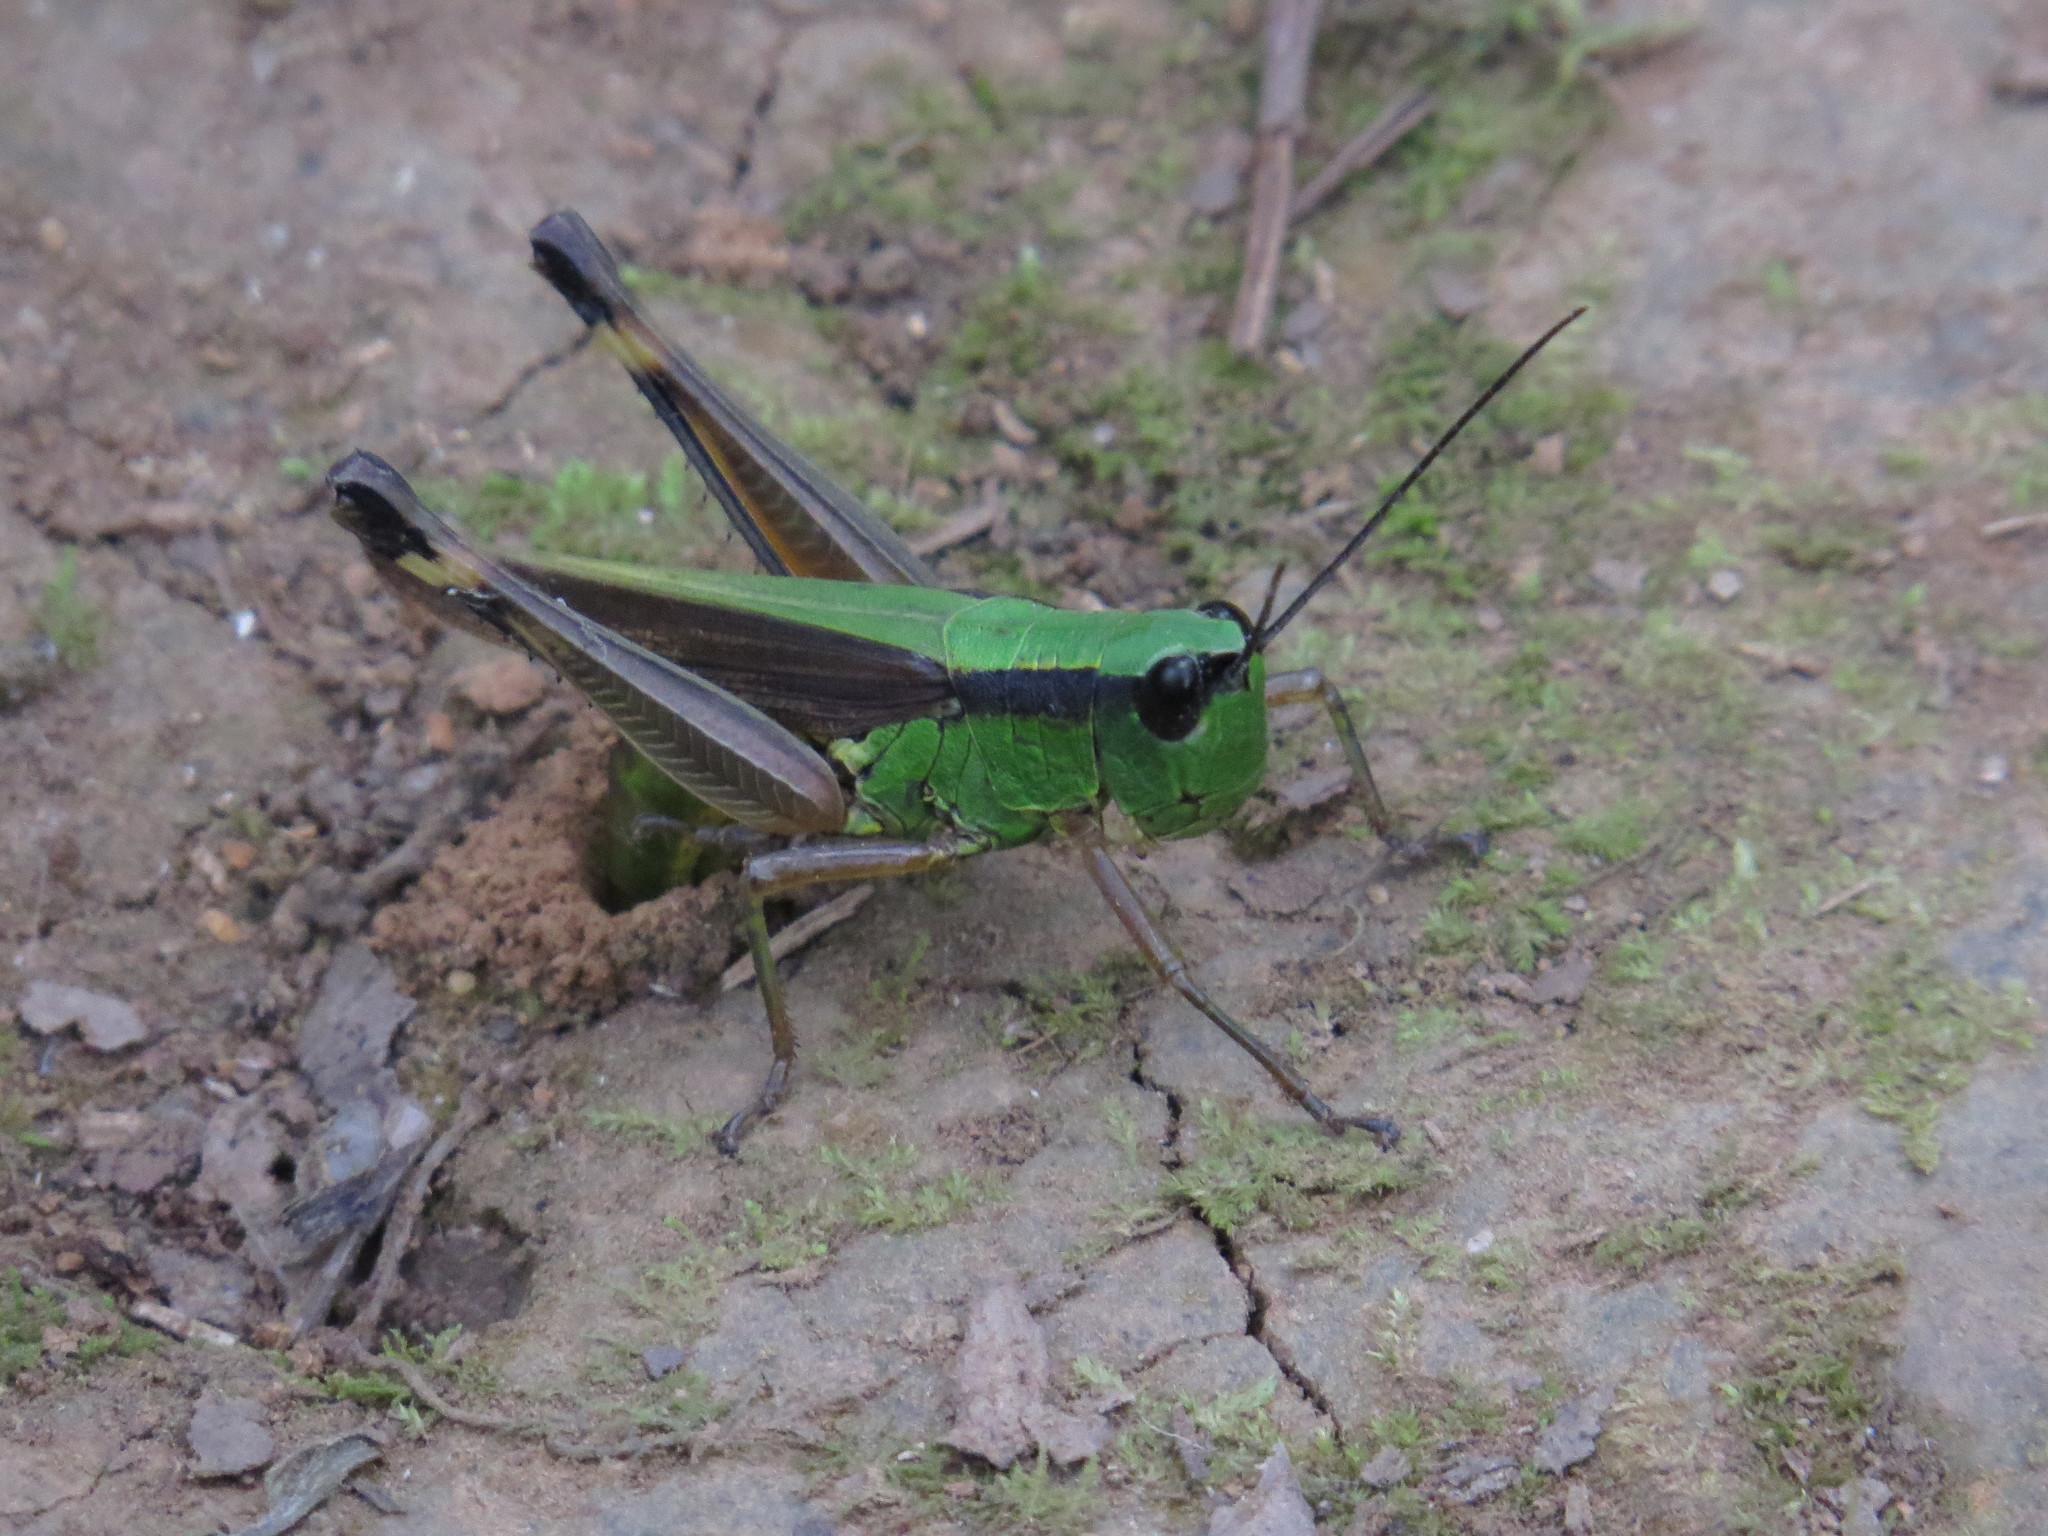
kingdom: Animalia
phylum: Arthropoda
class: Insecta
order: Orthoptera
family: Acrididae
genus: Ceracris
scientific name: Ceracris nigricornis
